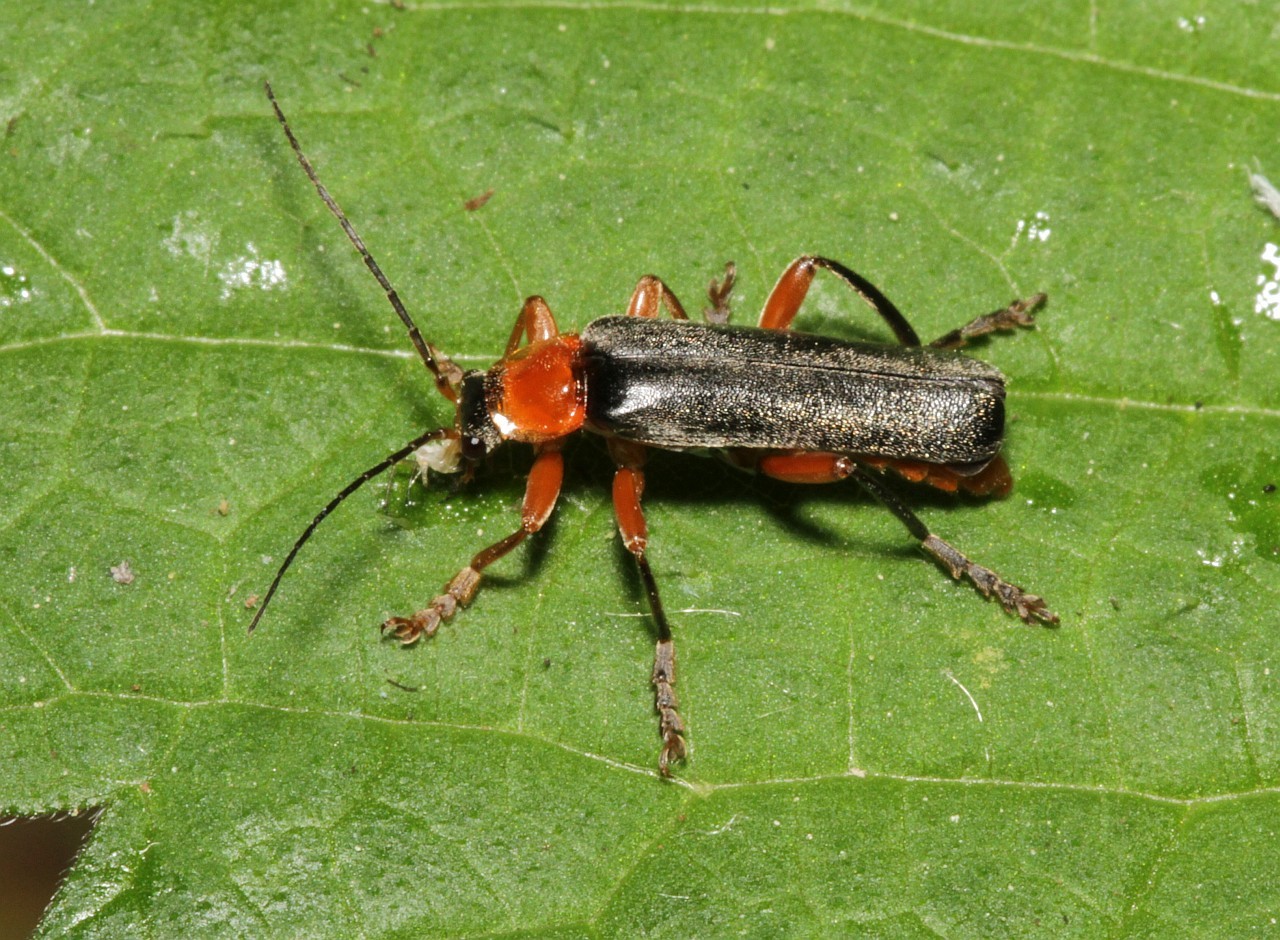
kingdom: Animalia
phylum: Arthropoda
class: Insecta
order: Coleoptera
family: Cantharidae
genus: Cantharis
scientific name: Cantharis pellucida
